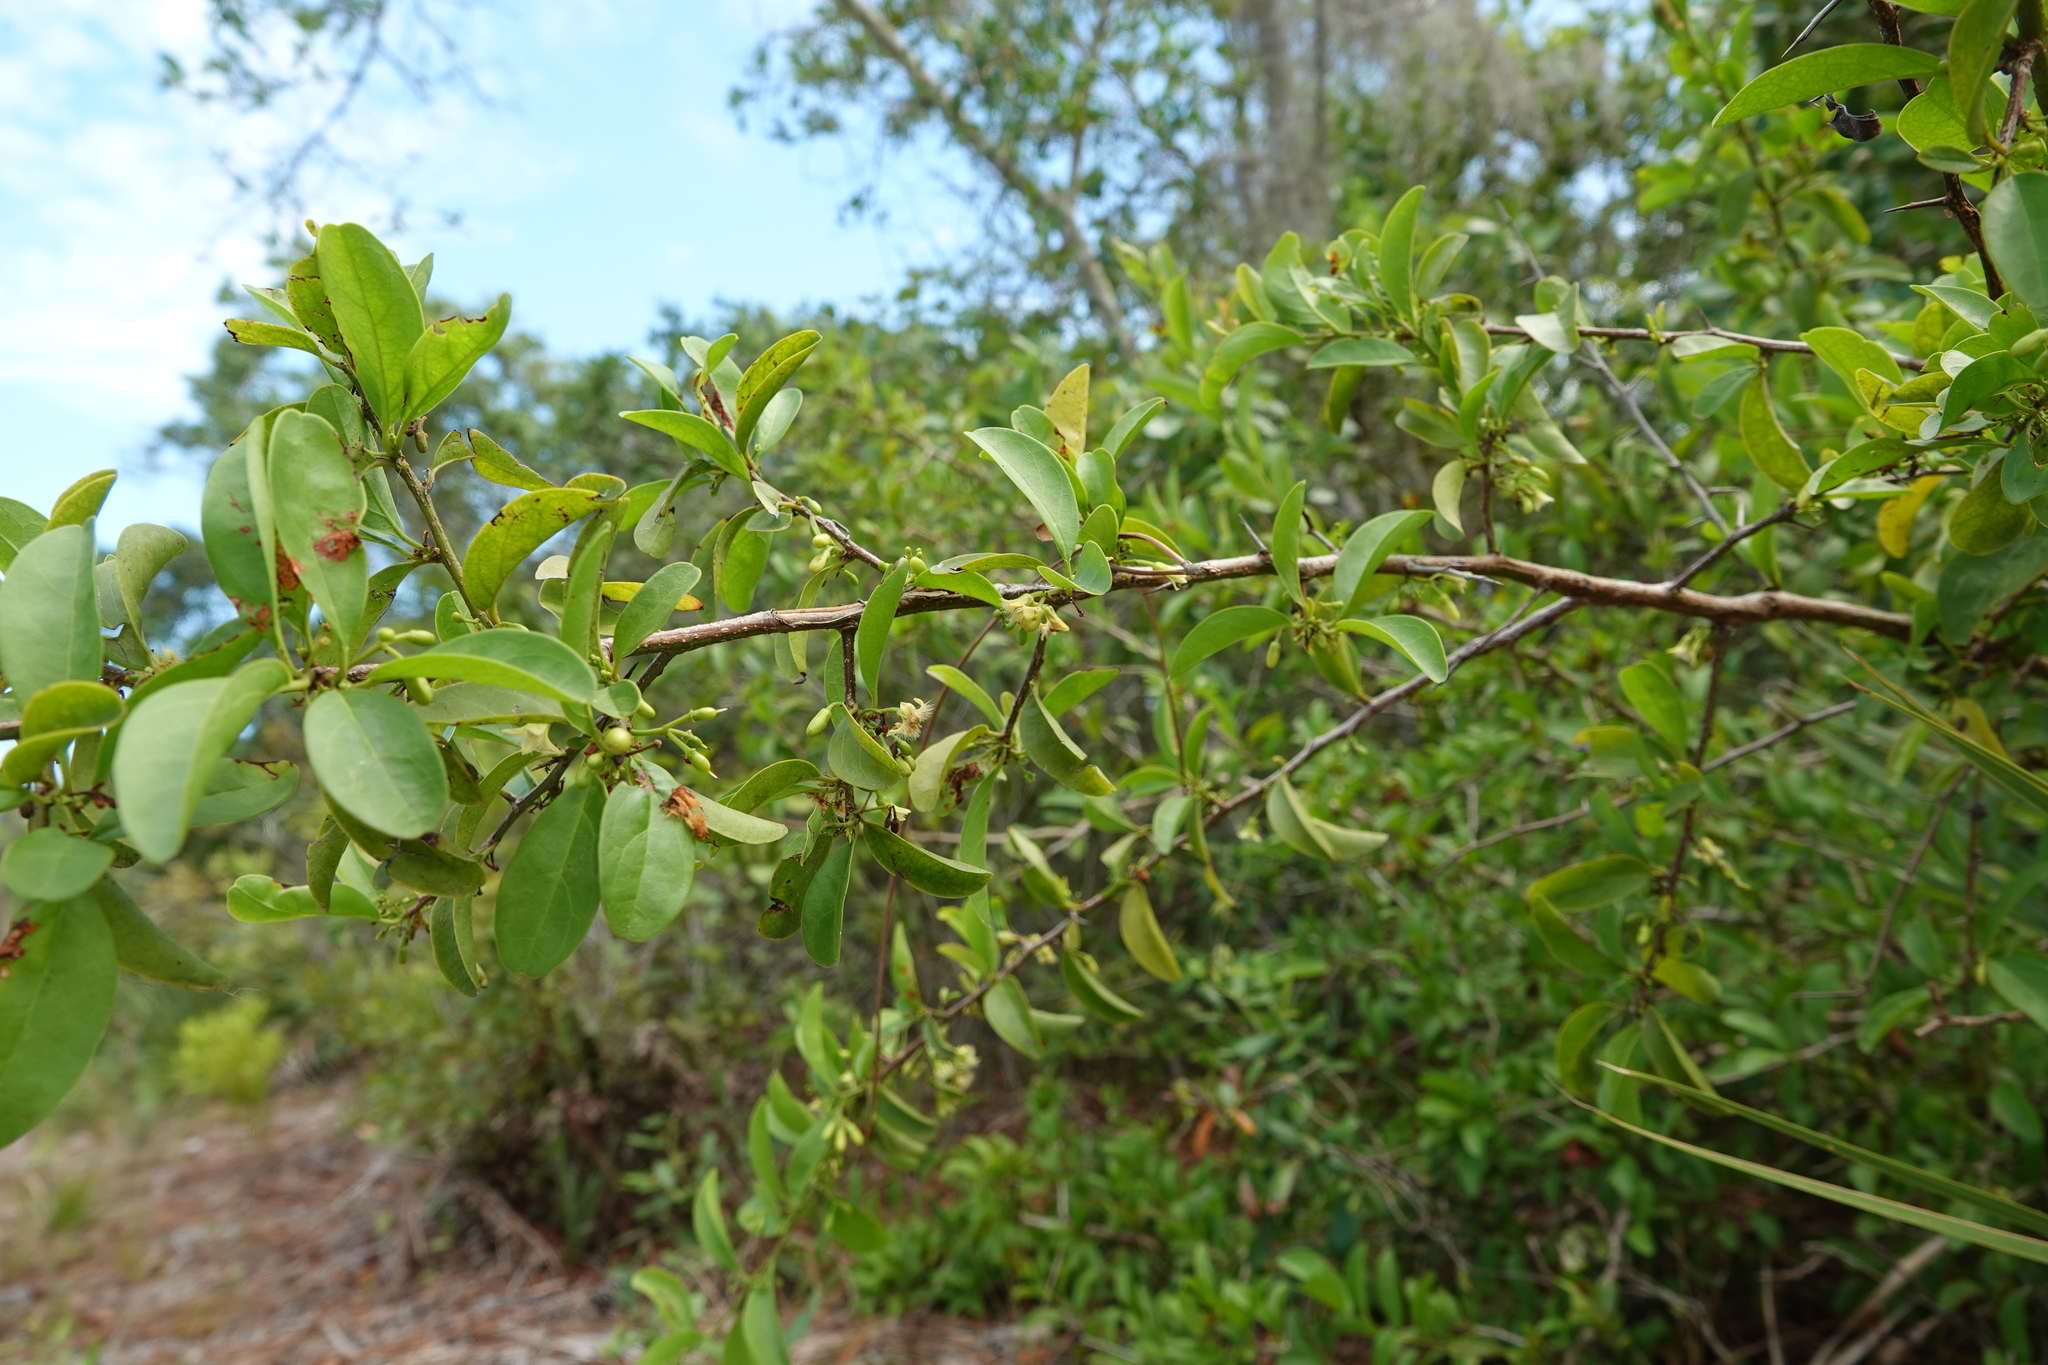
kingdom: Plantae
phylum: Tracheophyta
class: Magnoliopsida
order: Santalales
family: Ximeniaceae
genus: Ximenia
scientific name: Ximenia americana
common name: Tallowwood
